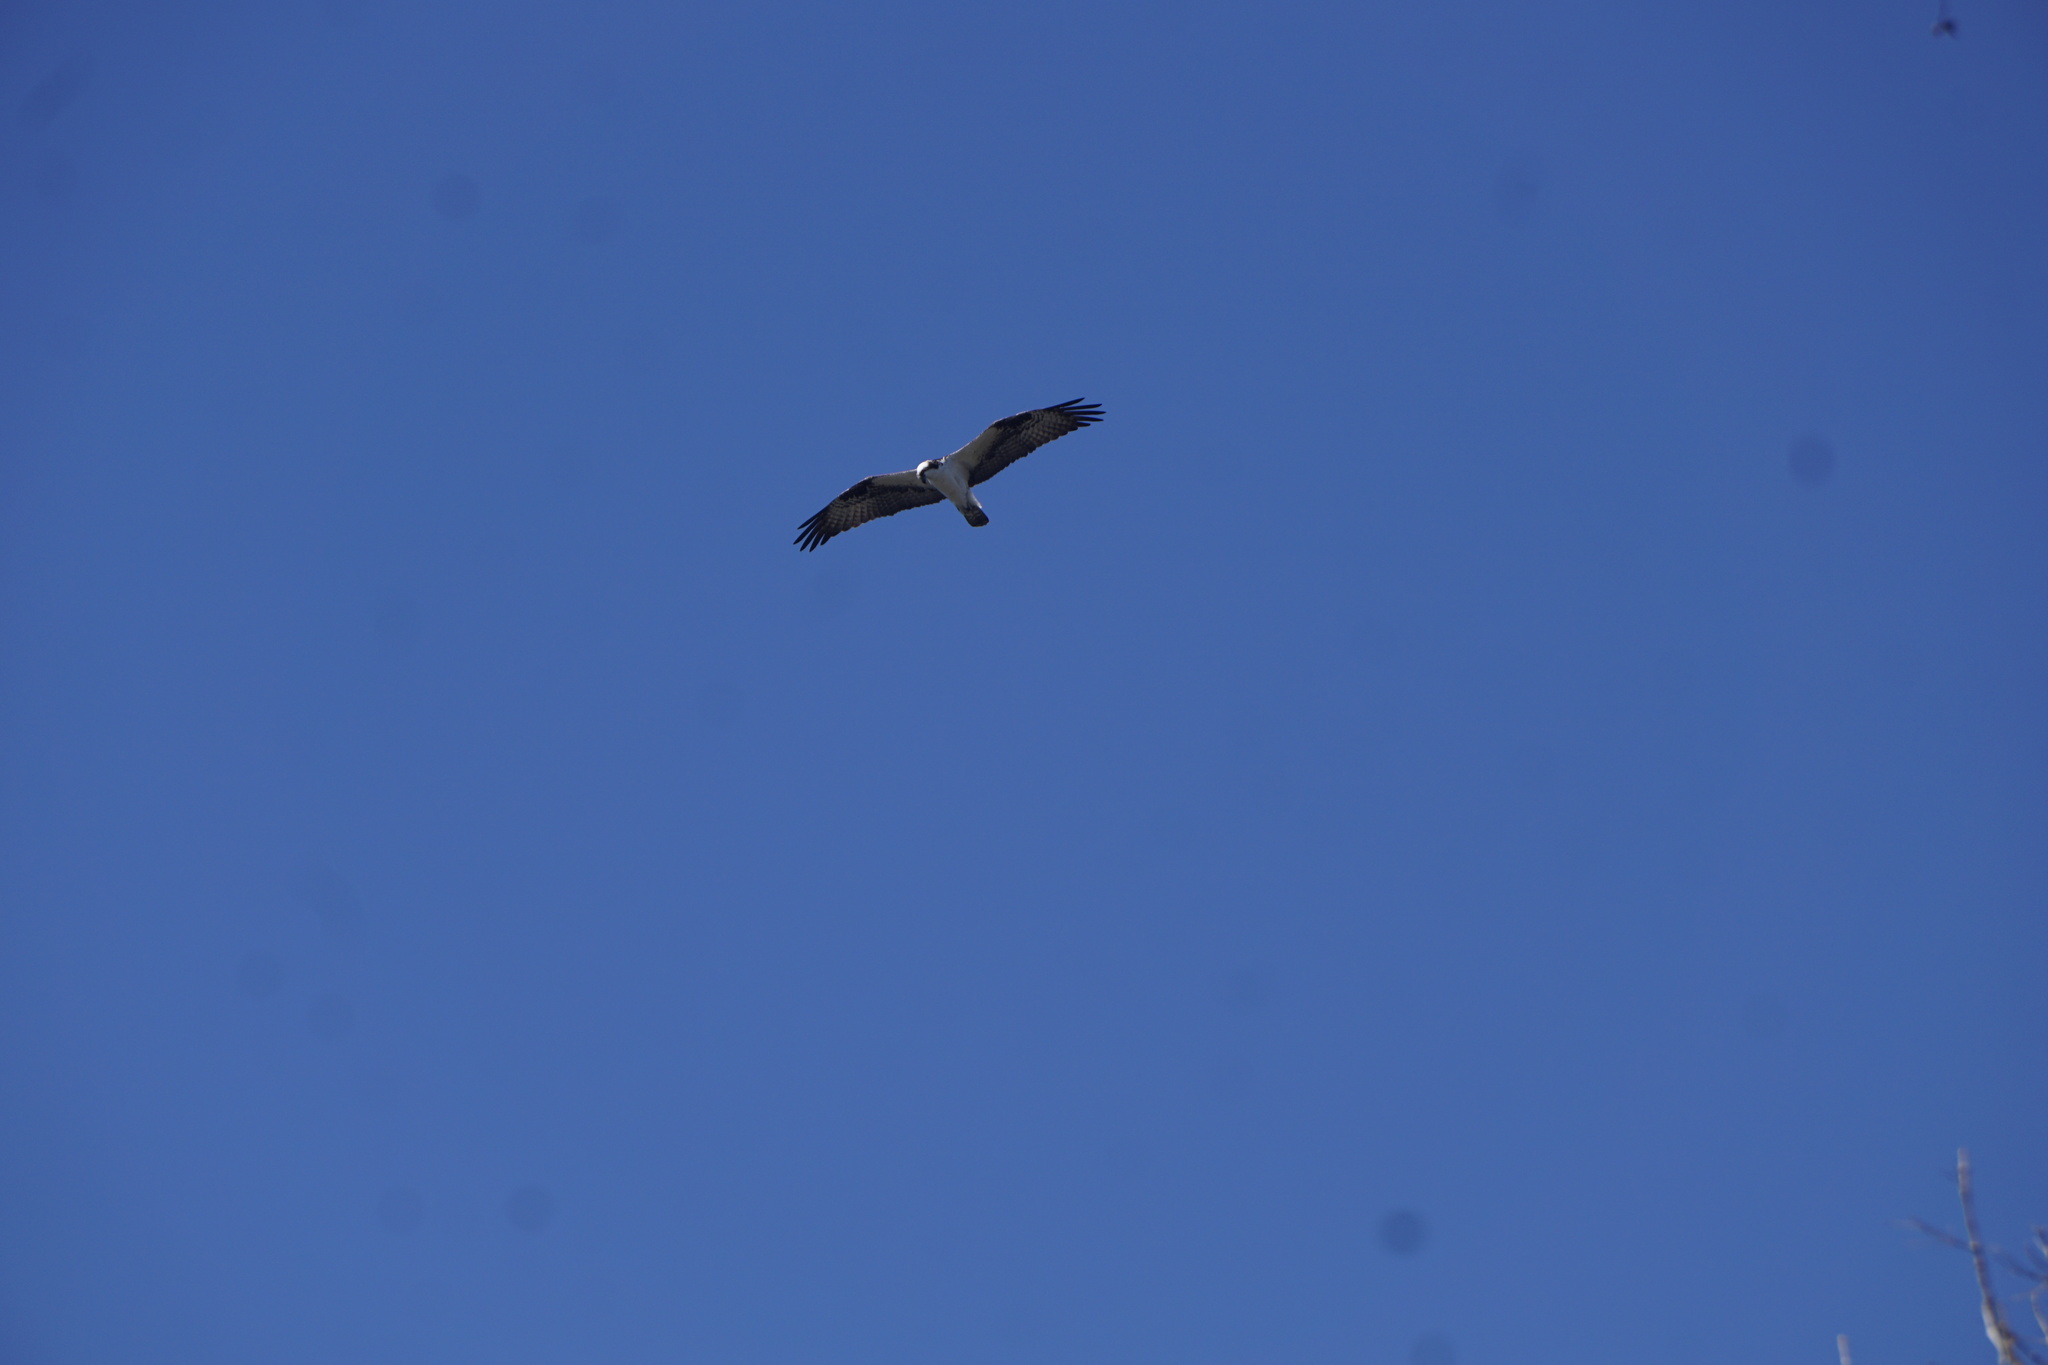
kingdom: Animalia
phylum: Chordata
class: Aves
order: Accipitriformes
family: Pandionidae
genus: Pandion
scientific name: Pandion haliaetus
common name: Osprey
